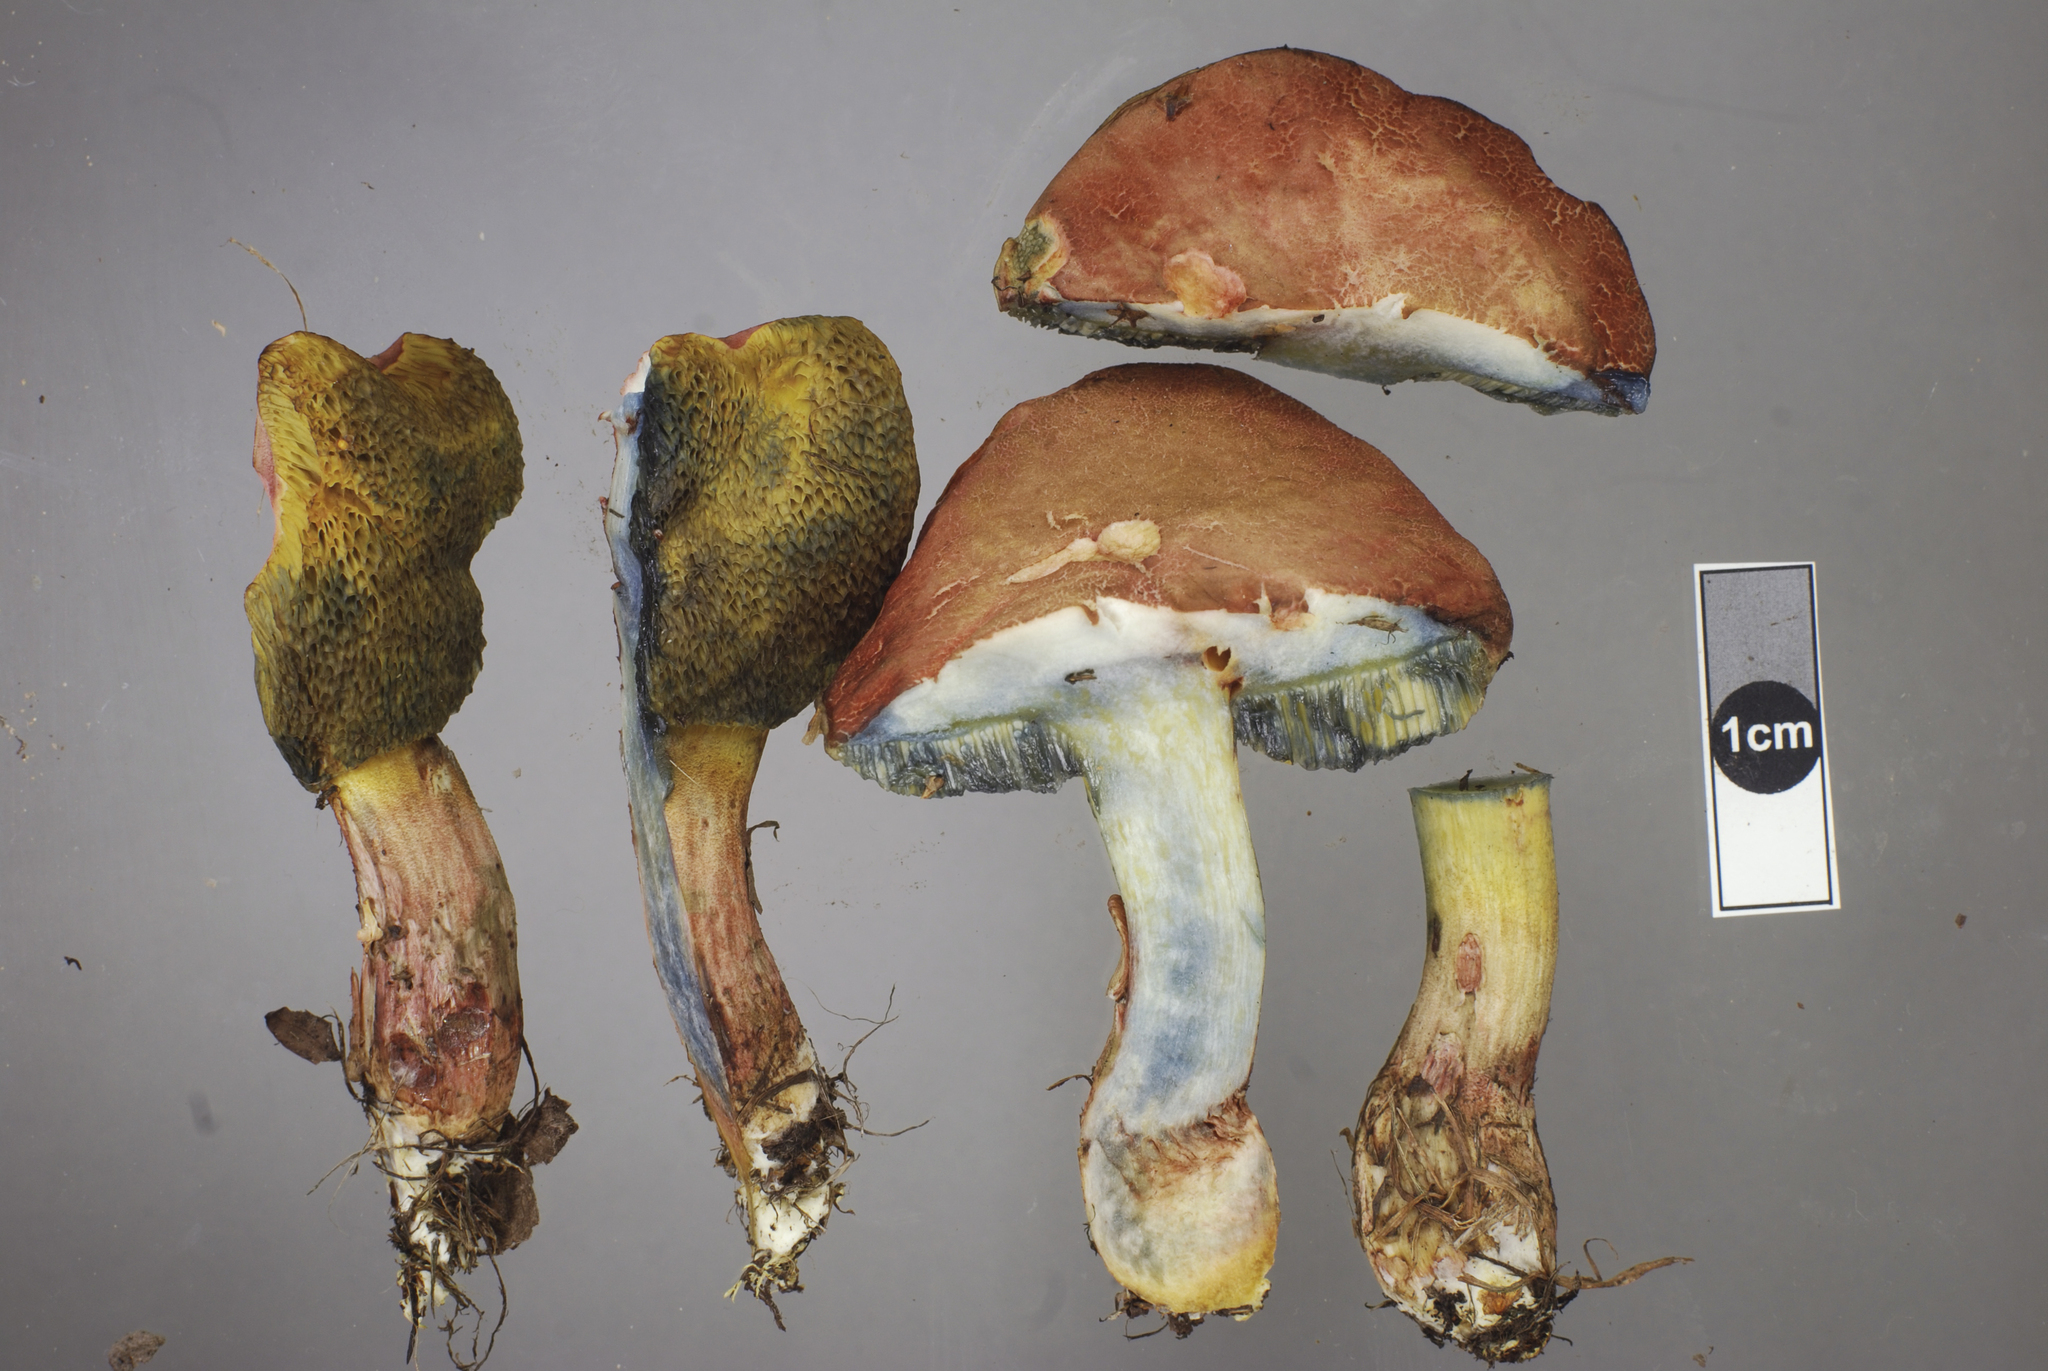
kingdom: Fungi
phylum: Basidiomycota
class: Agaricomycetes
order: Boletales
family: Boletaceae
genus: Xerocomellus
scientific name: Xerocomellus cisalpinus
